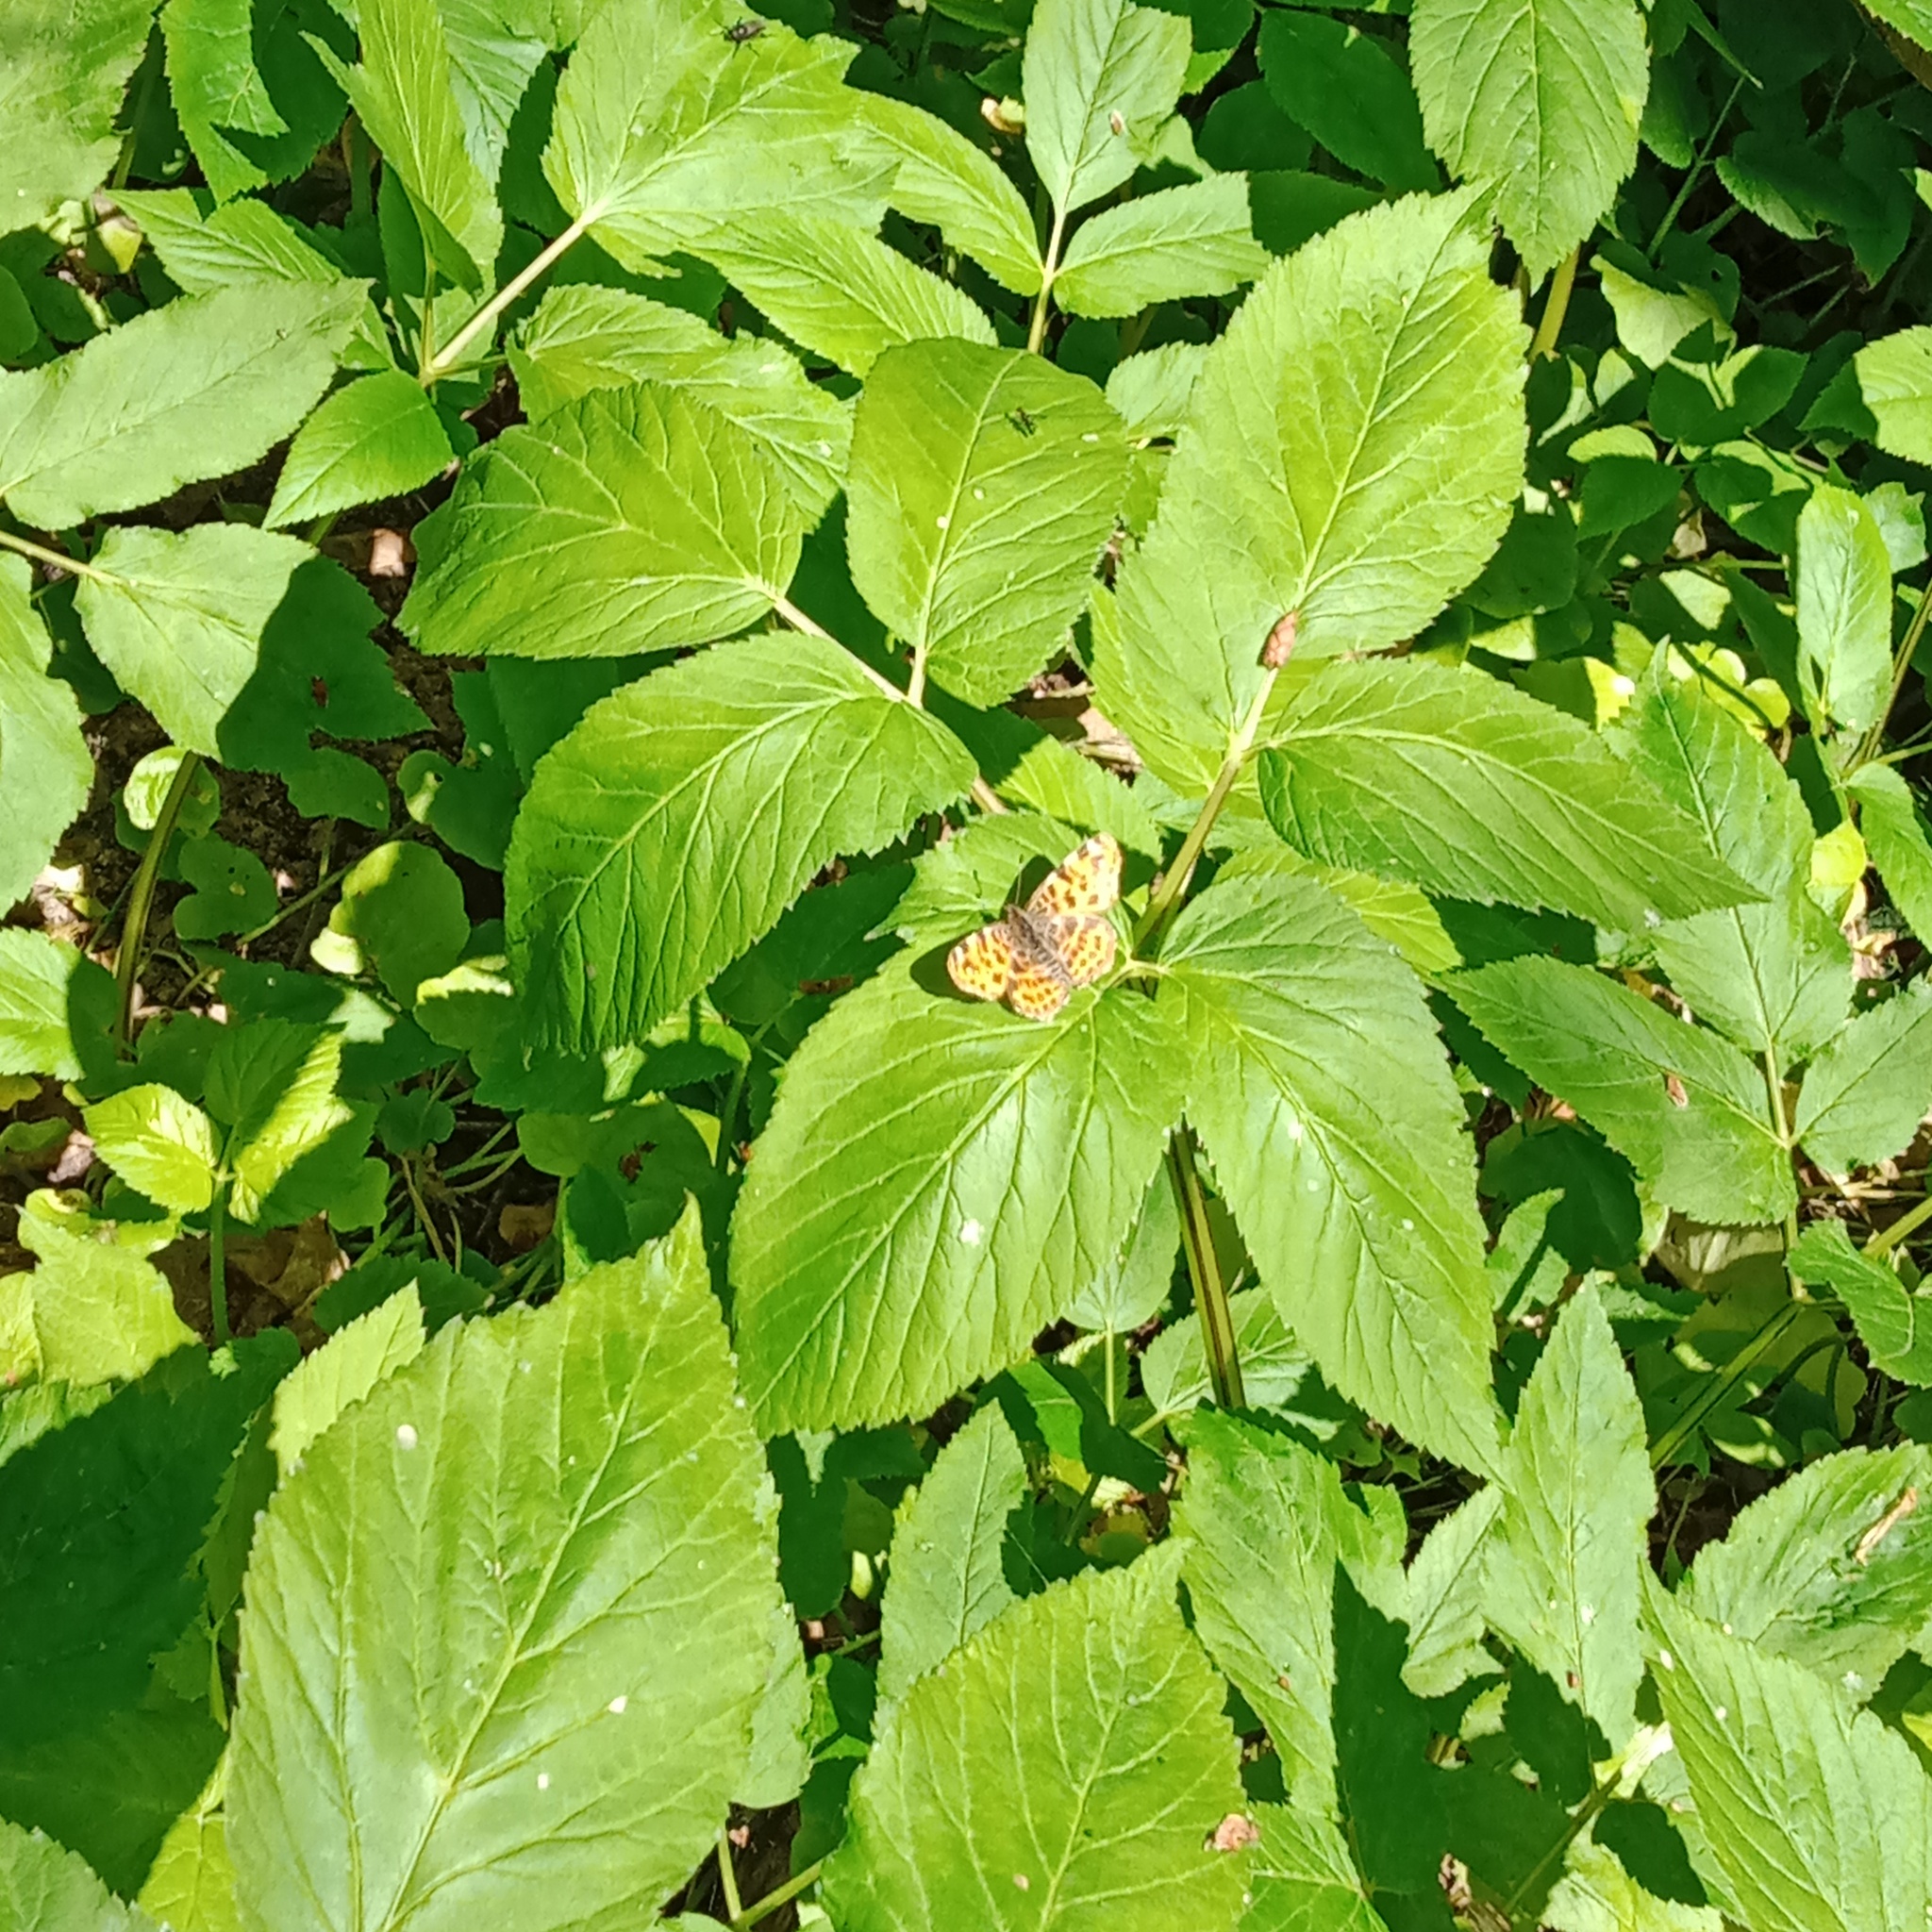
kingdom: Animalia
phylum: Arthropoda
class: Insecta
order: Lepidoptera
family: Nymphalidae
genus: Araschnia
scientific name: Araschnia levana
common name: Map butterfly
